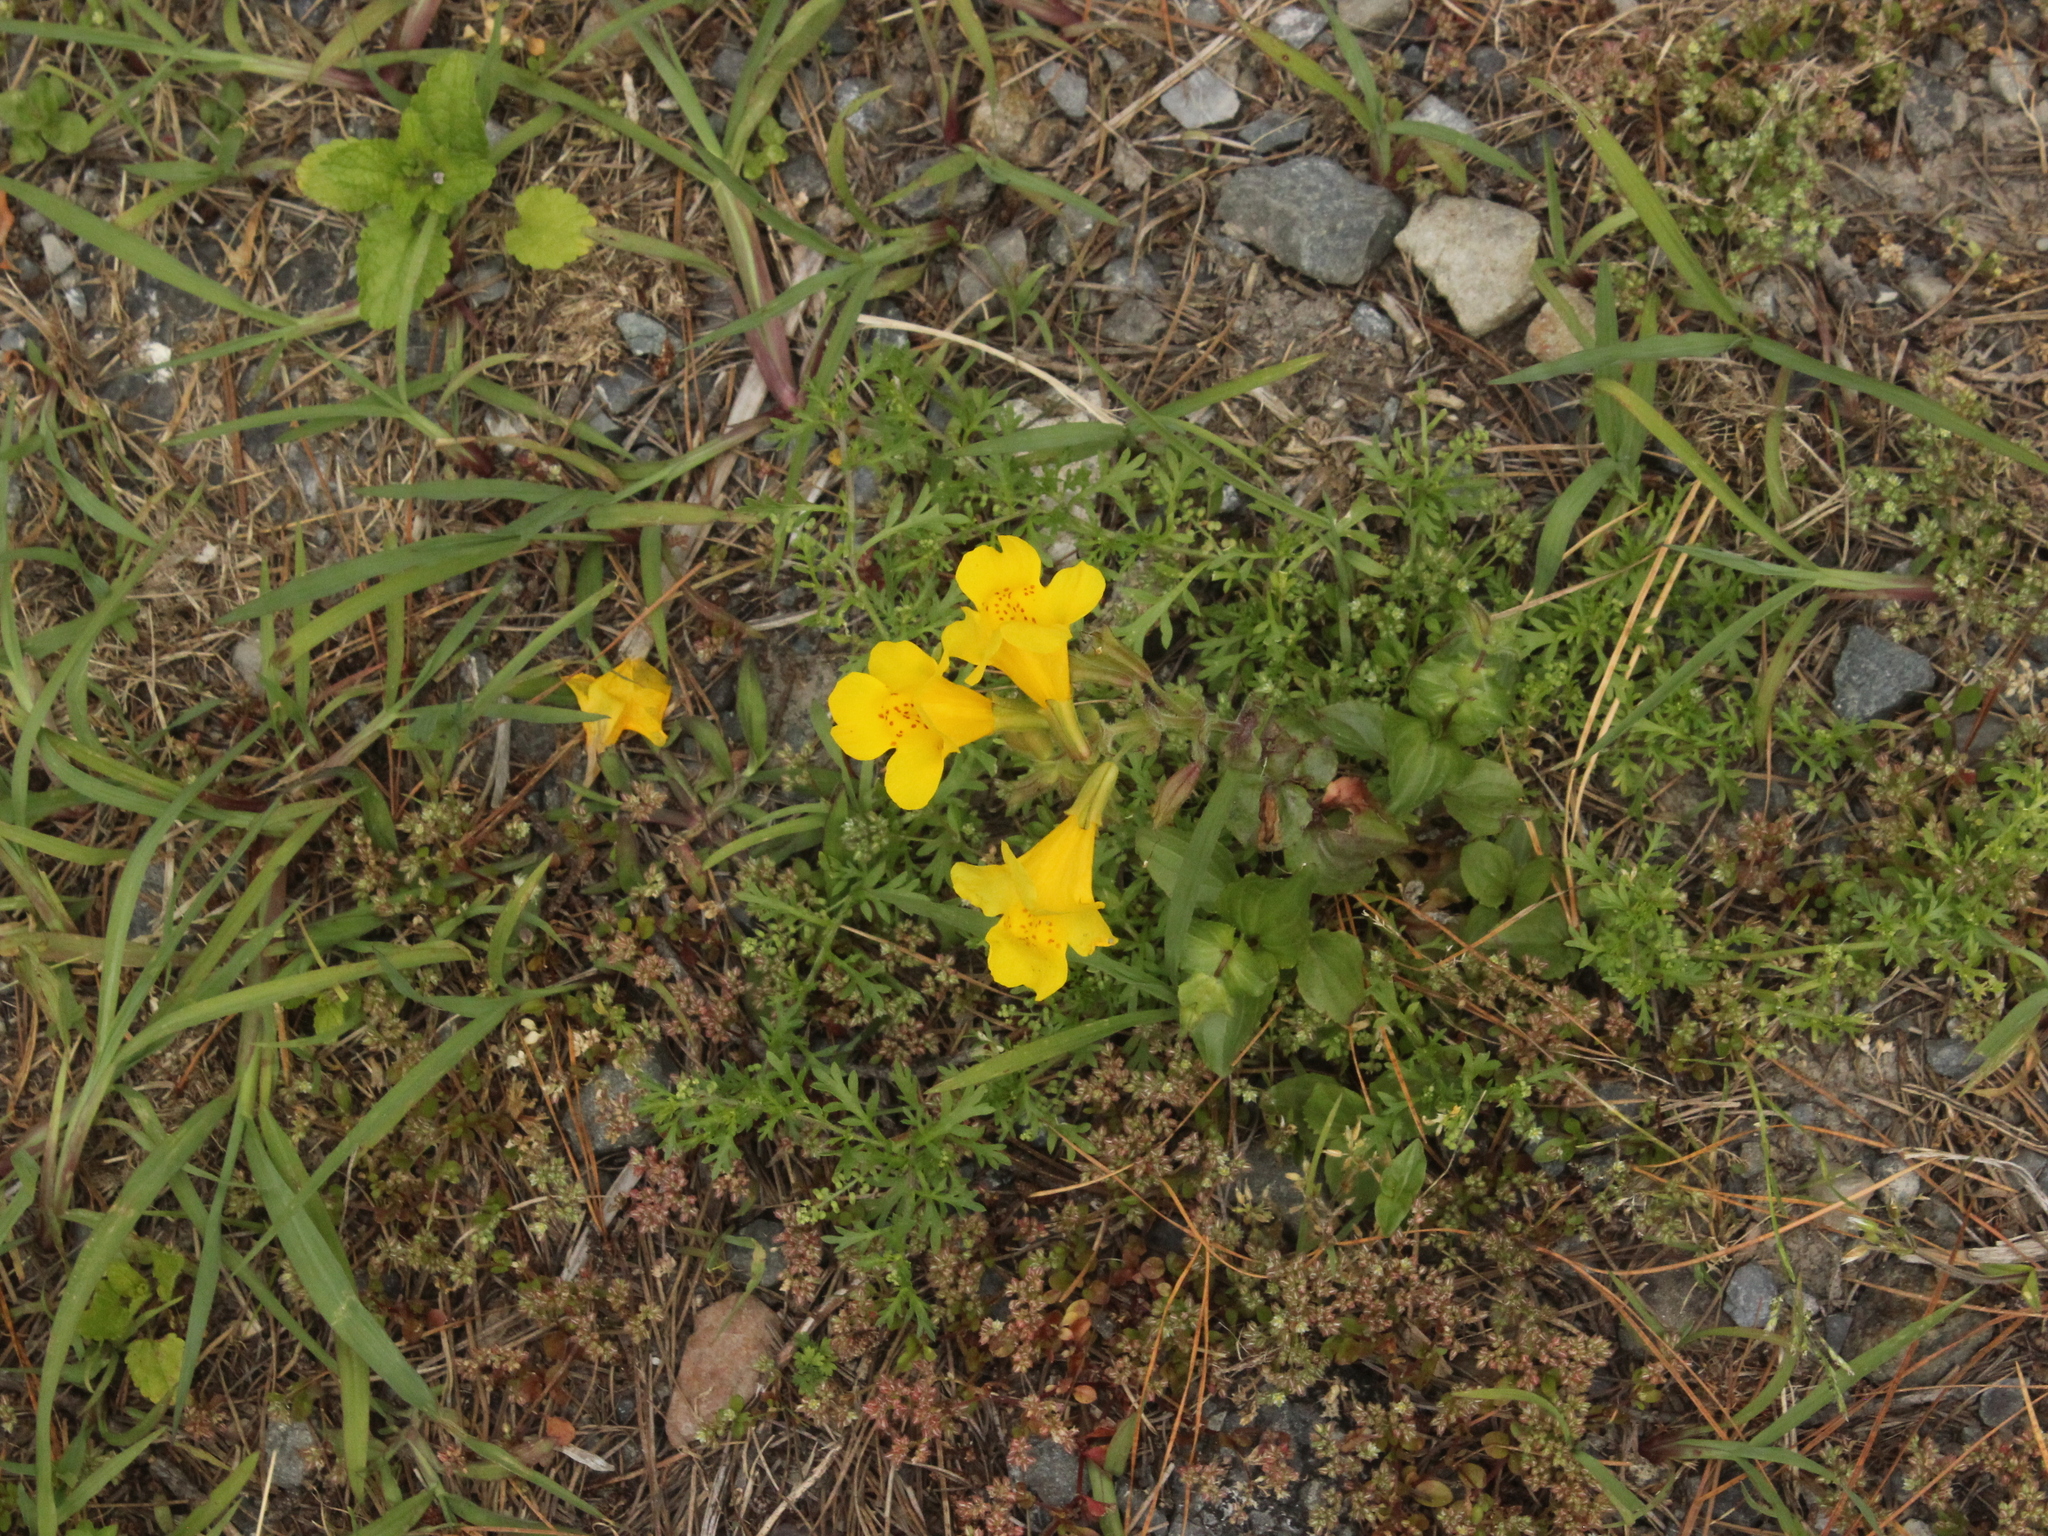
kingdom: Plantae
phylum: Tracheophyta
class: Magnoliopsida
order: Lamiales
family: Phrymaceae
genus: Erythranthe
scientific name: Erythranthe guttata
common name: Monkeyflower
